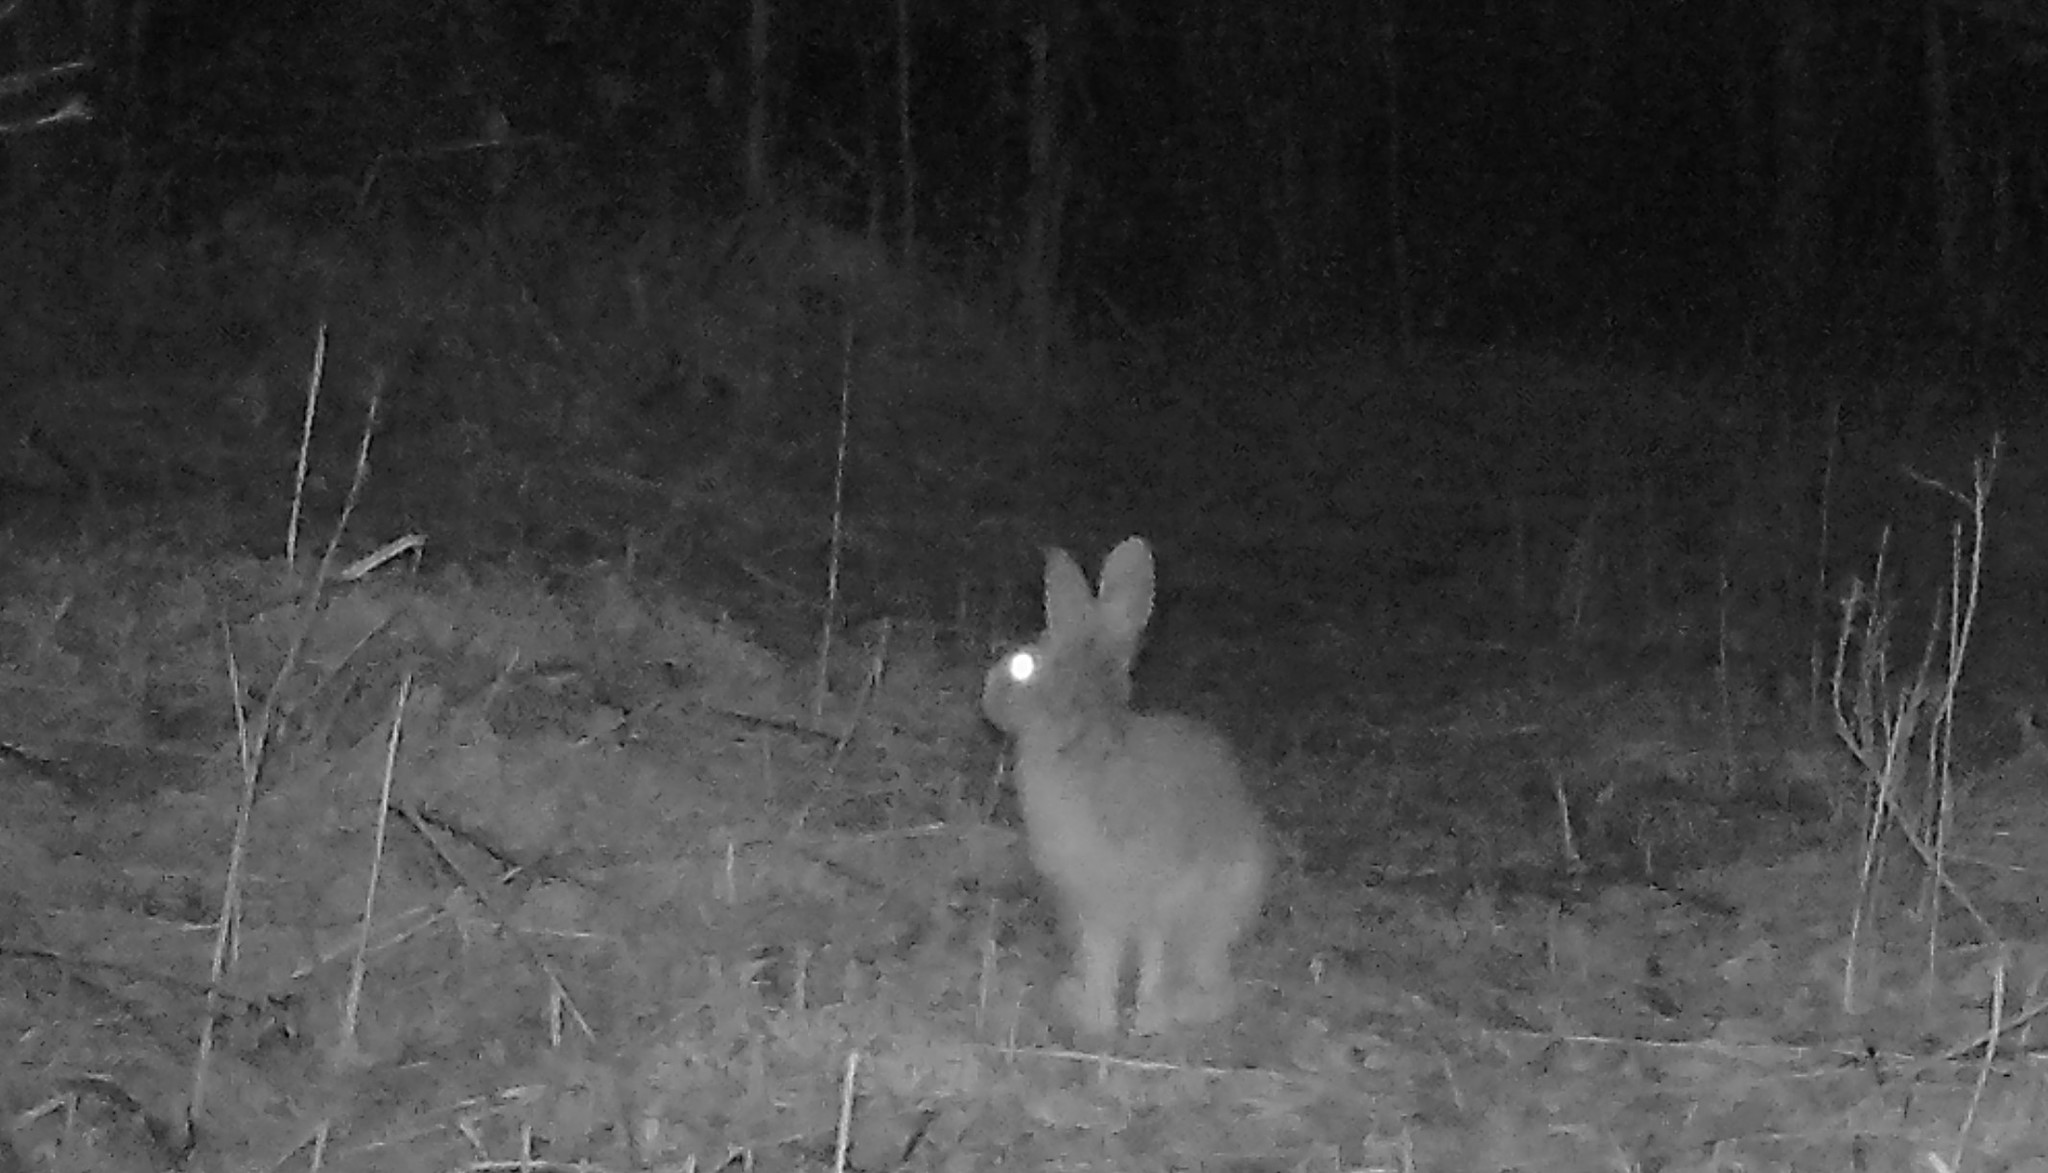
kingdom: Animalia
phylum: Chordata
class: Mammalia
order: Lagomorpha
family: Leporidae
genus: Lepus
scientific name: Lepus americanus
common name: Snowshoe hare
